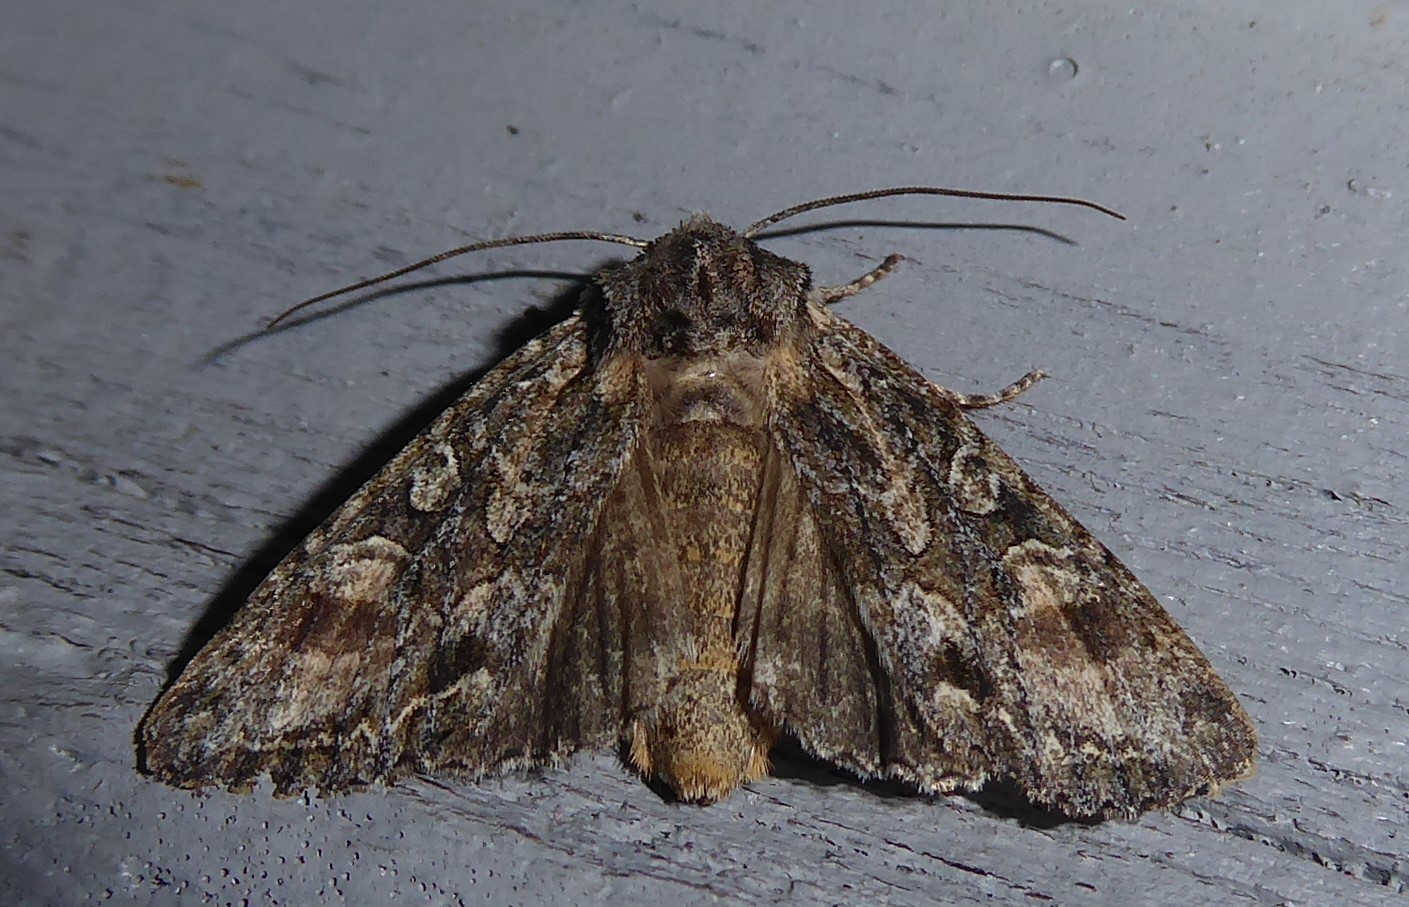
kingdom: Animalia
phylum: Arthropoda
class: Insecta
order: Lepidoptera
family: Noctuidae
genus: Ichneutica
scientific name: Ichneutica mutans
